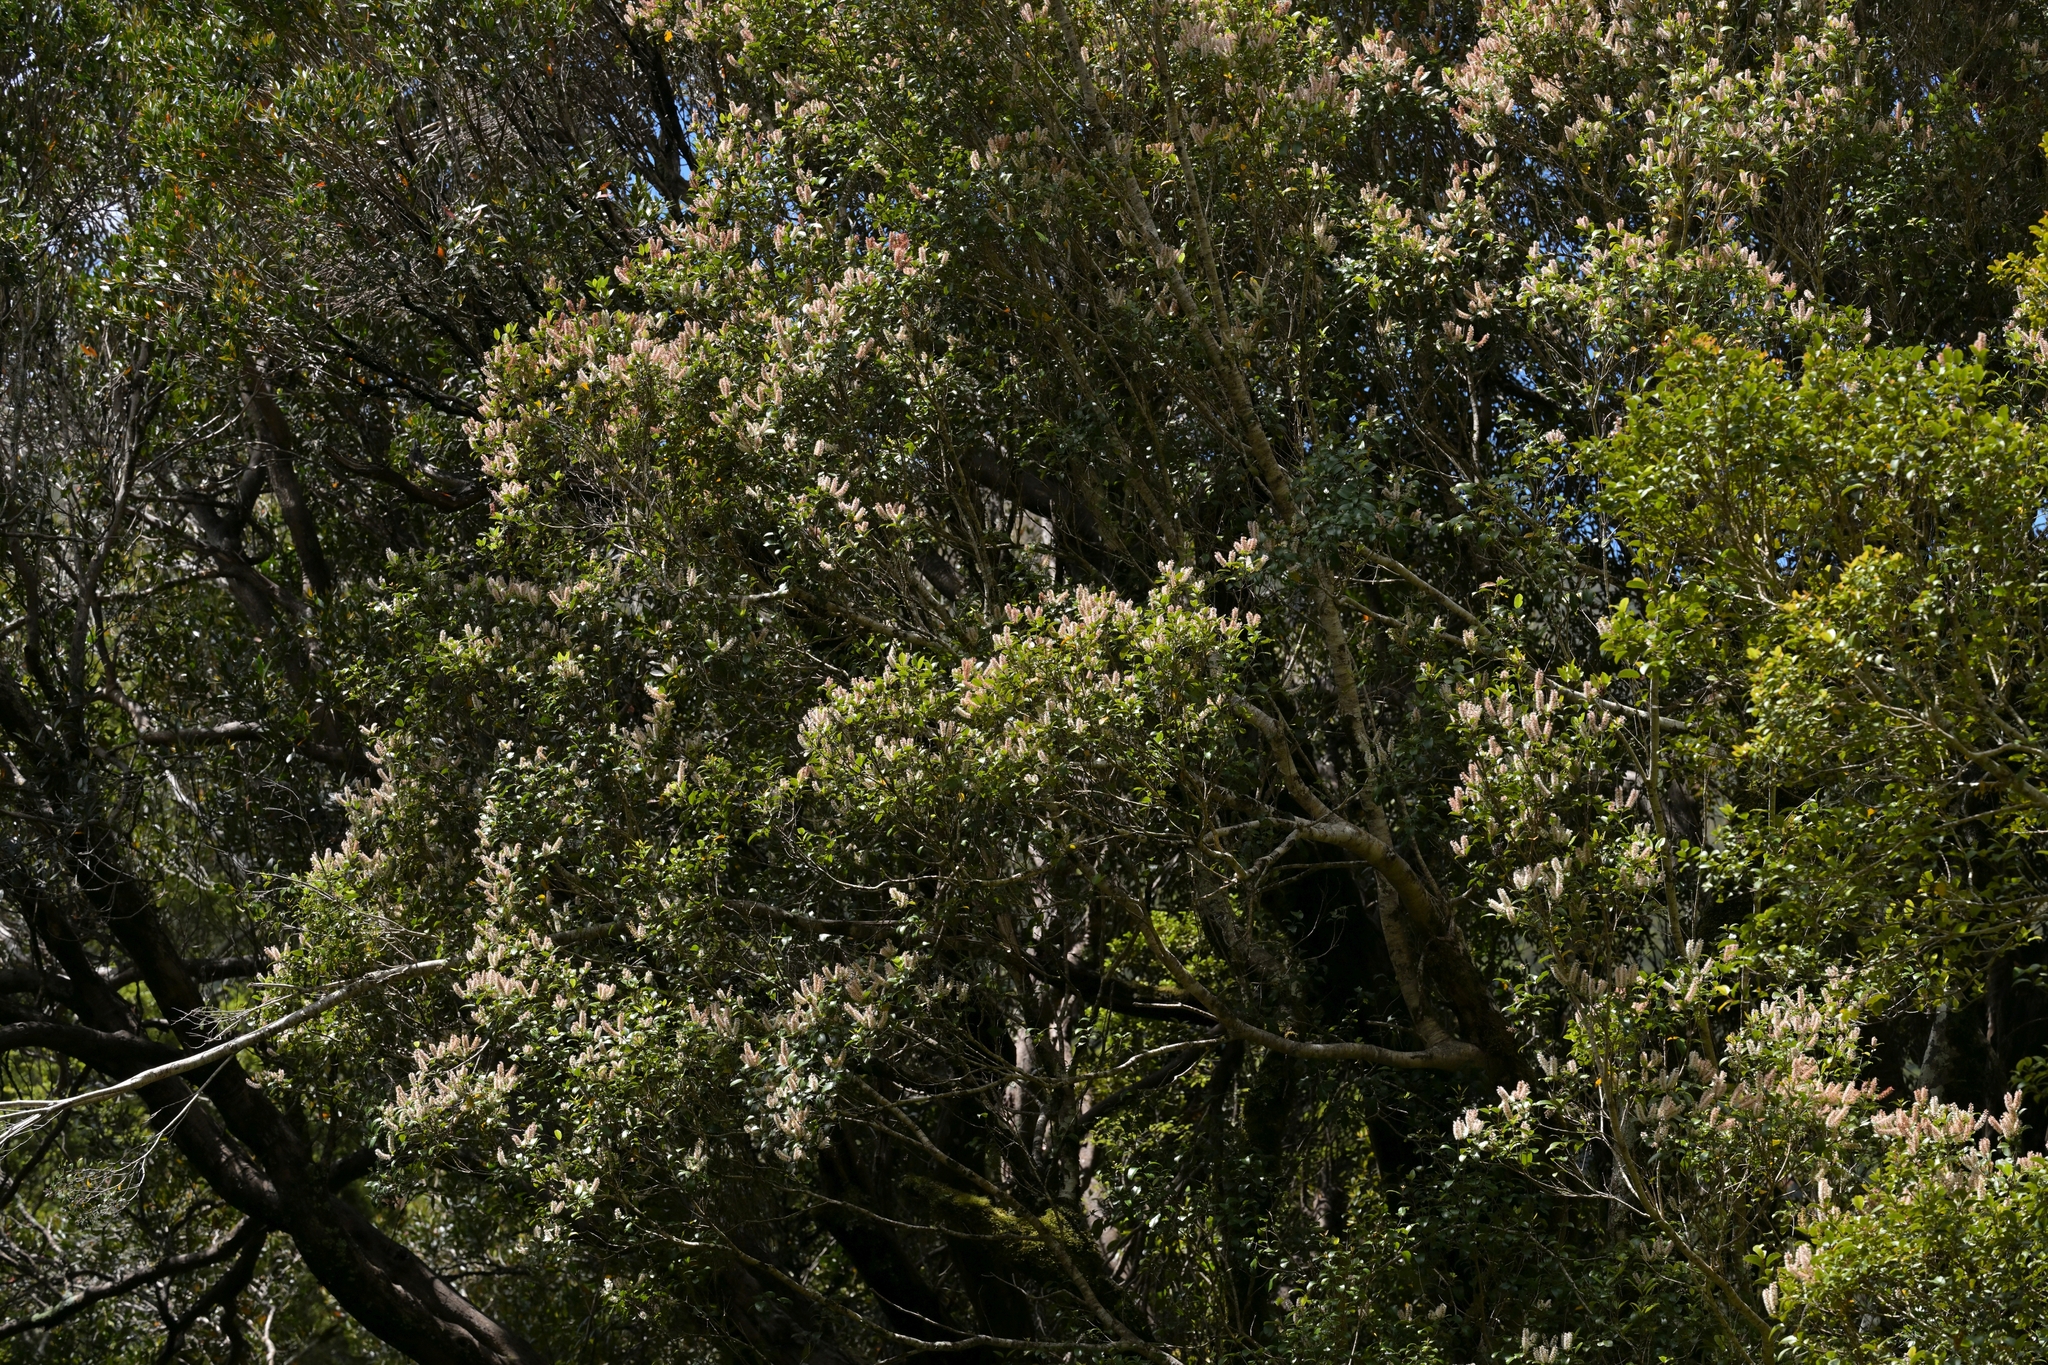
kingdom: Plantae
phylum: Tracheophyta
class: Magnoliopsida
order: Oxalidales
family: Cunoniaceae
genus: Pterophylla
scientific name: Pterophylla racemosa
